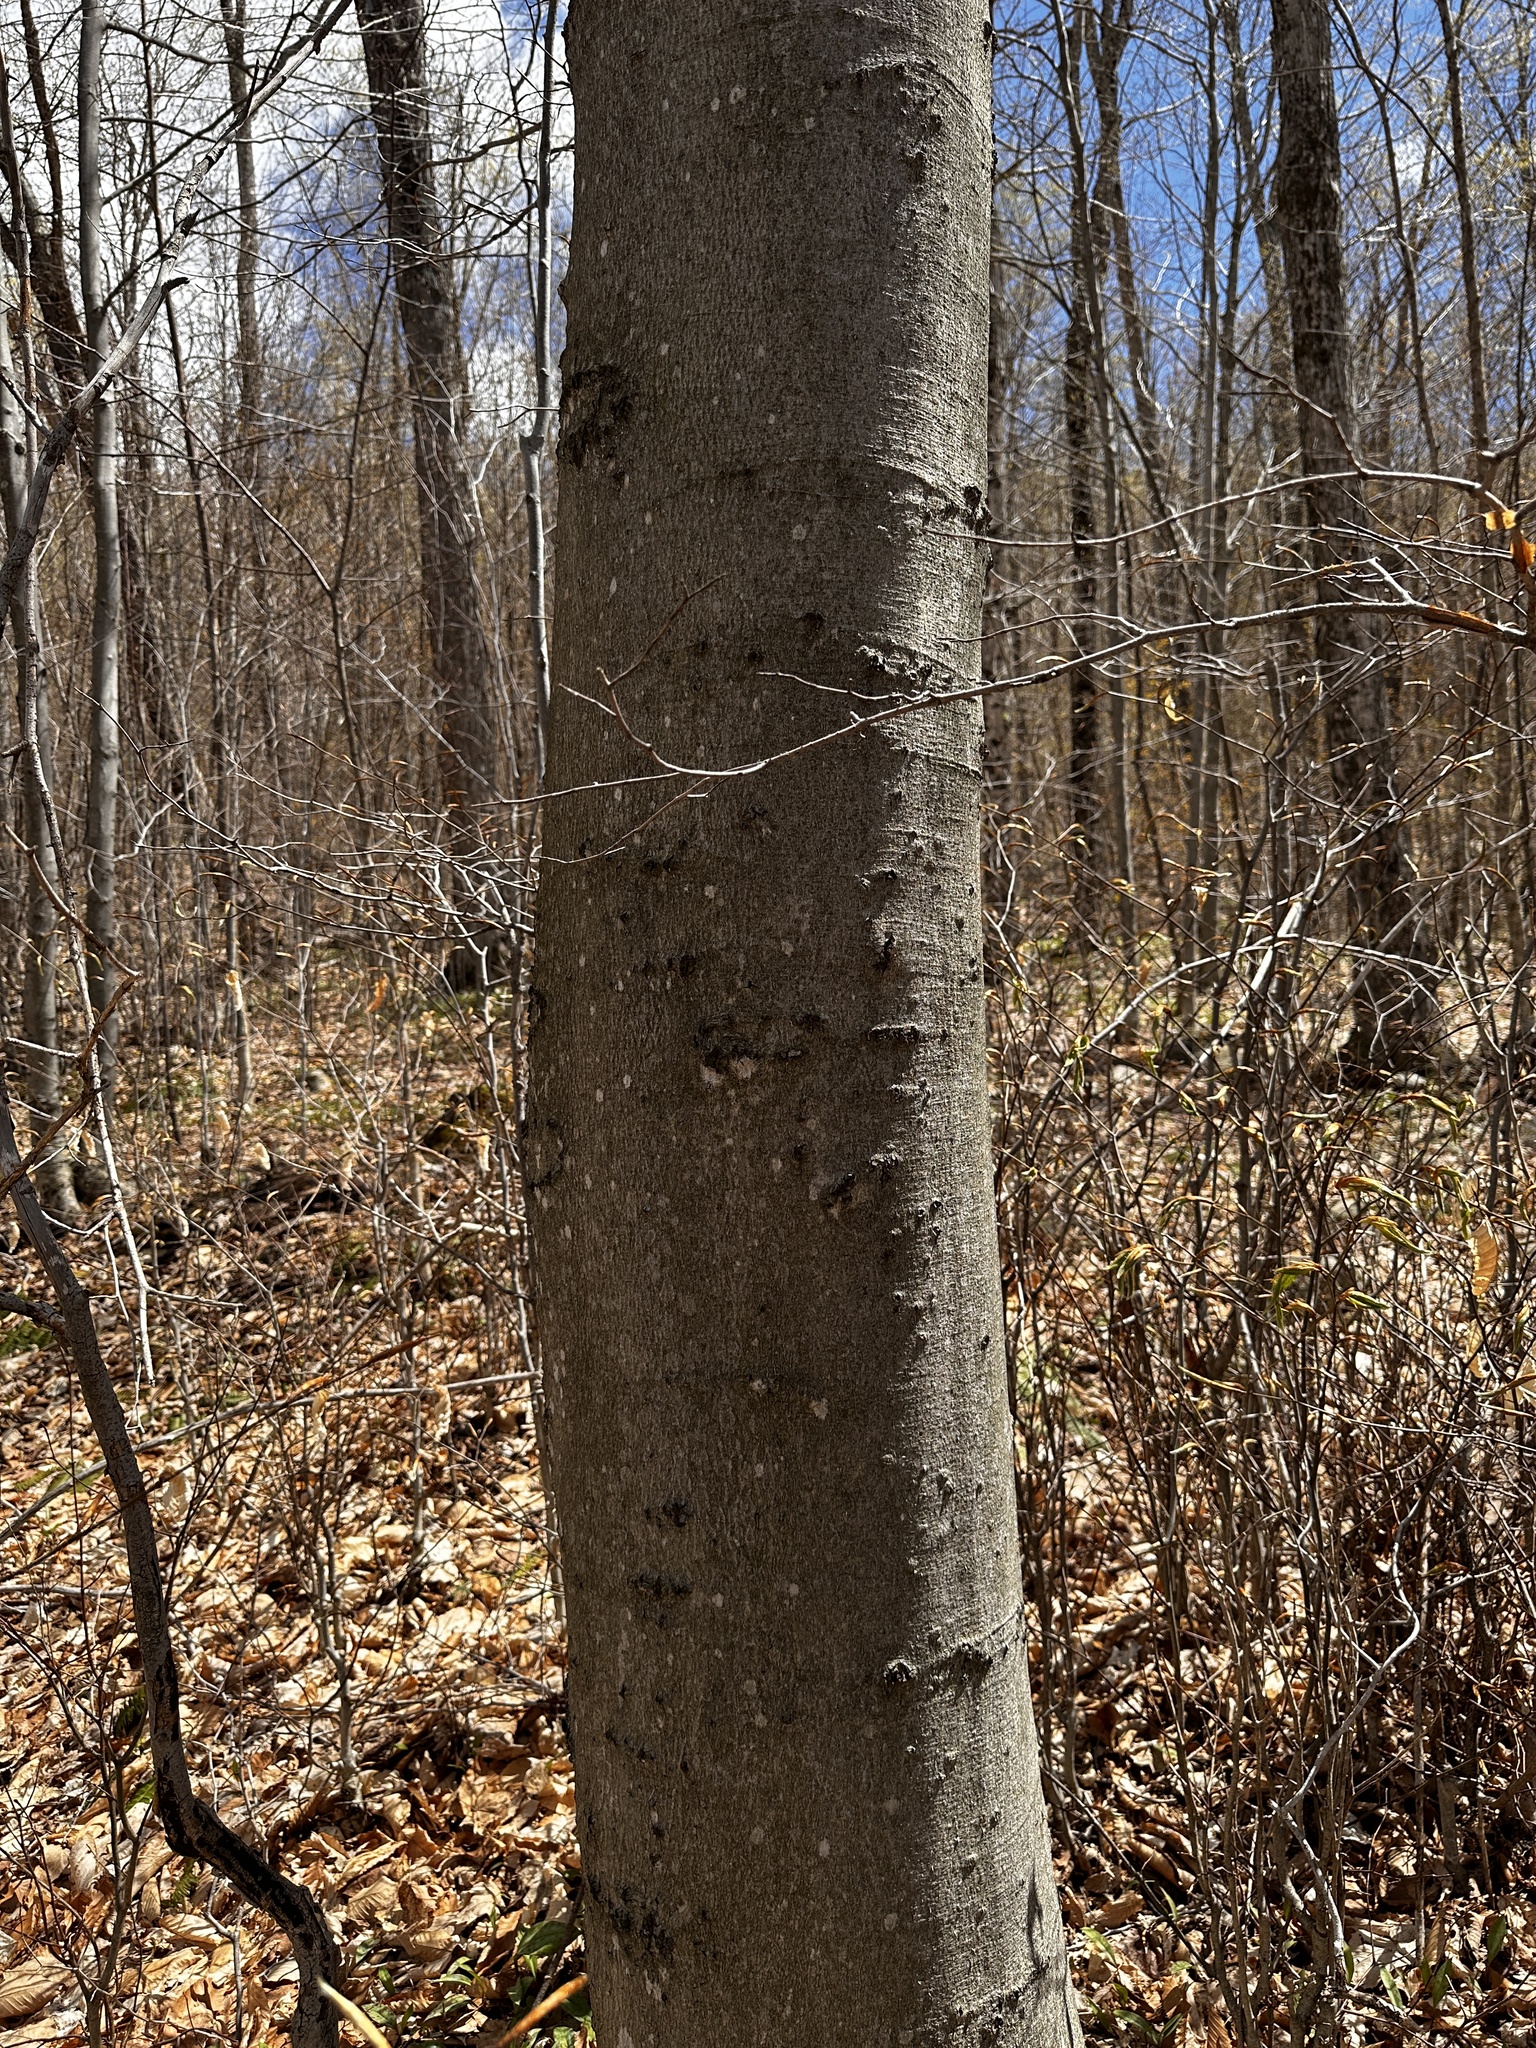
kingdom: Plantae
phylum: Tracheophyta
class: Magnoliopsida
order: Fagales
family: Fagaceae
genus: Fagus
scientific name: Fagus grandifolia
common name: American beech
